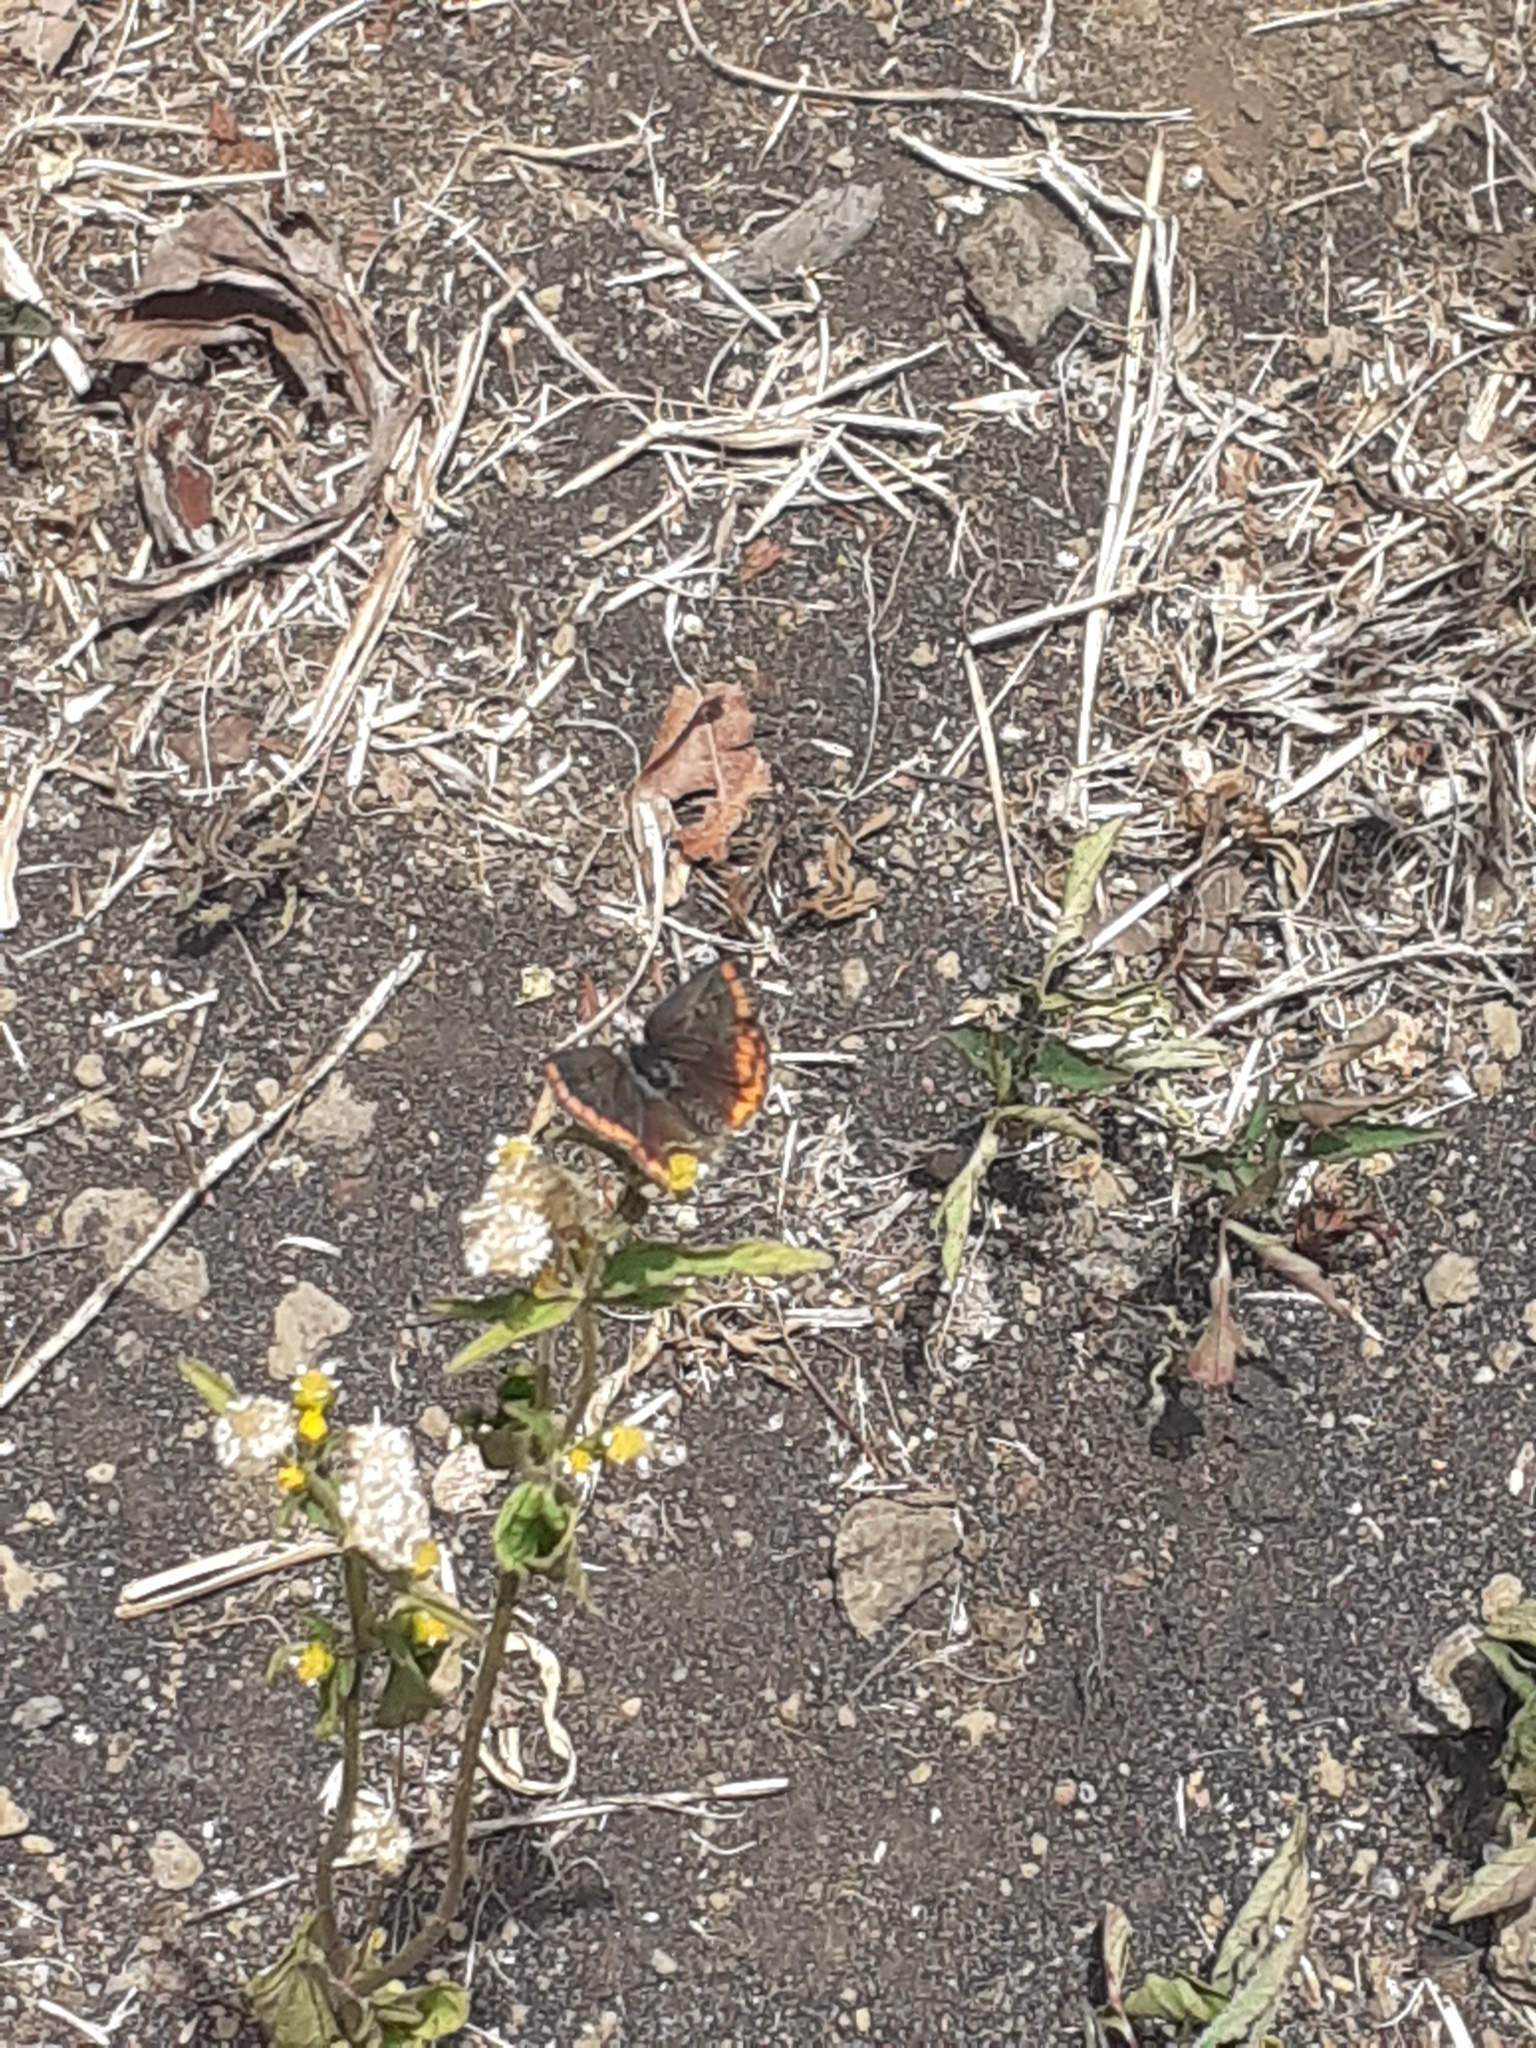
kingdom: Animalia
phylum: Arthropoda
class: Insecta
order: Lepidoptera
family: Lycaenidae
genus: Aricia
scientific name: Aricia cramera
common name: Eschscholtz´s brown  argus
